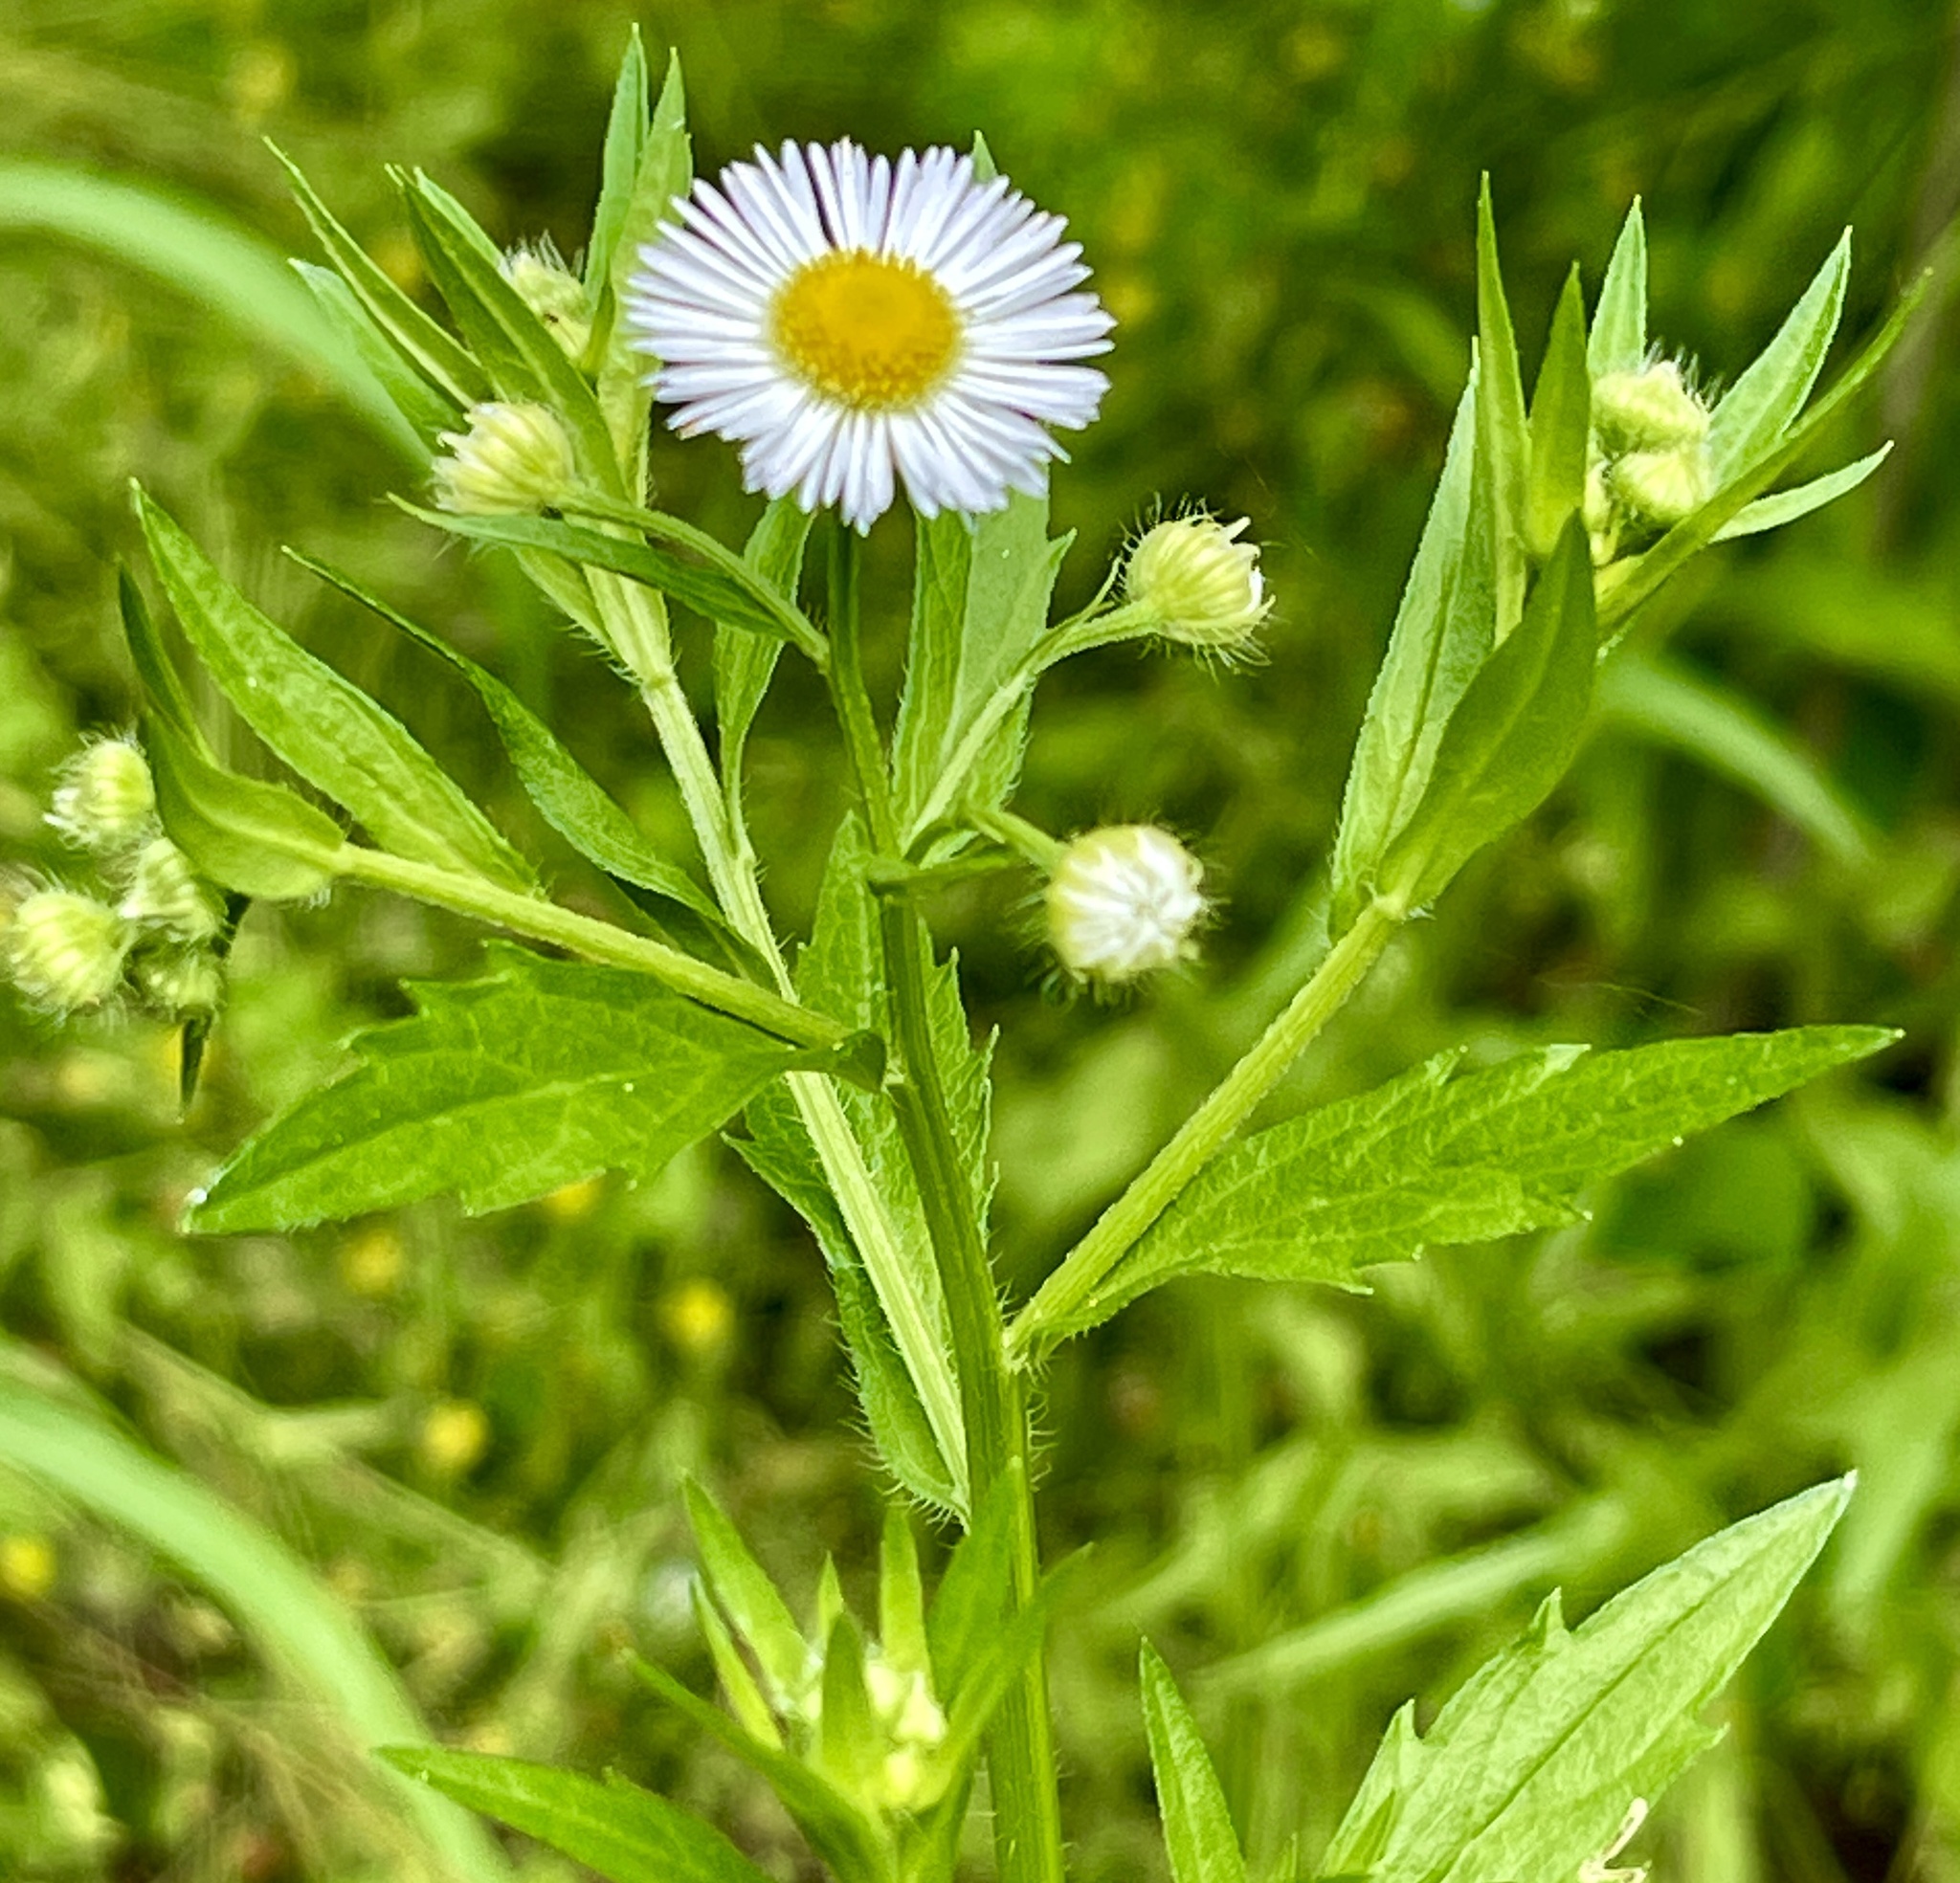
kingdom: Plantae
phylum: Tracheophyta
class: Magnoliopsida
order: Asterales
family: Asteraceae
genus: Erigeron
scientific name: Erigeron annuus
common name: Tall fleabane
